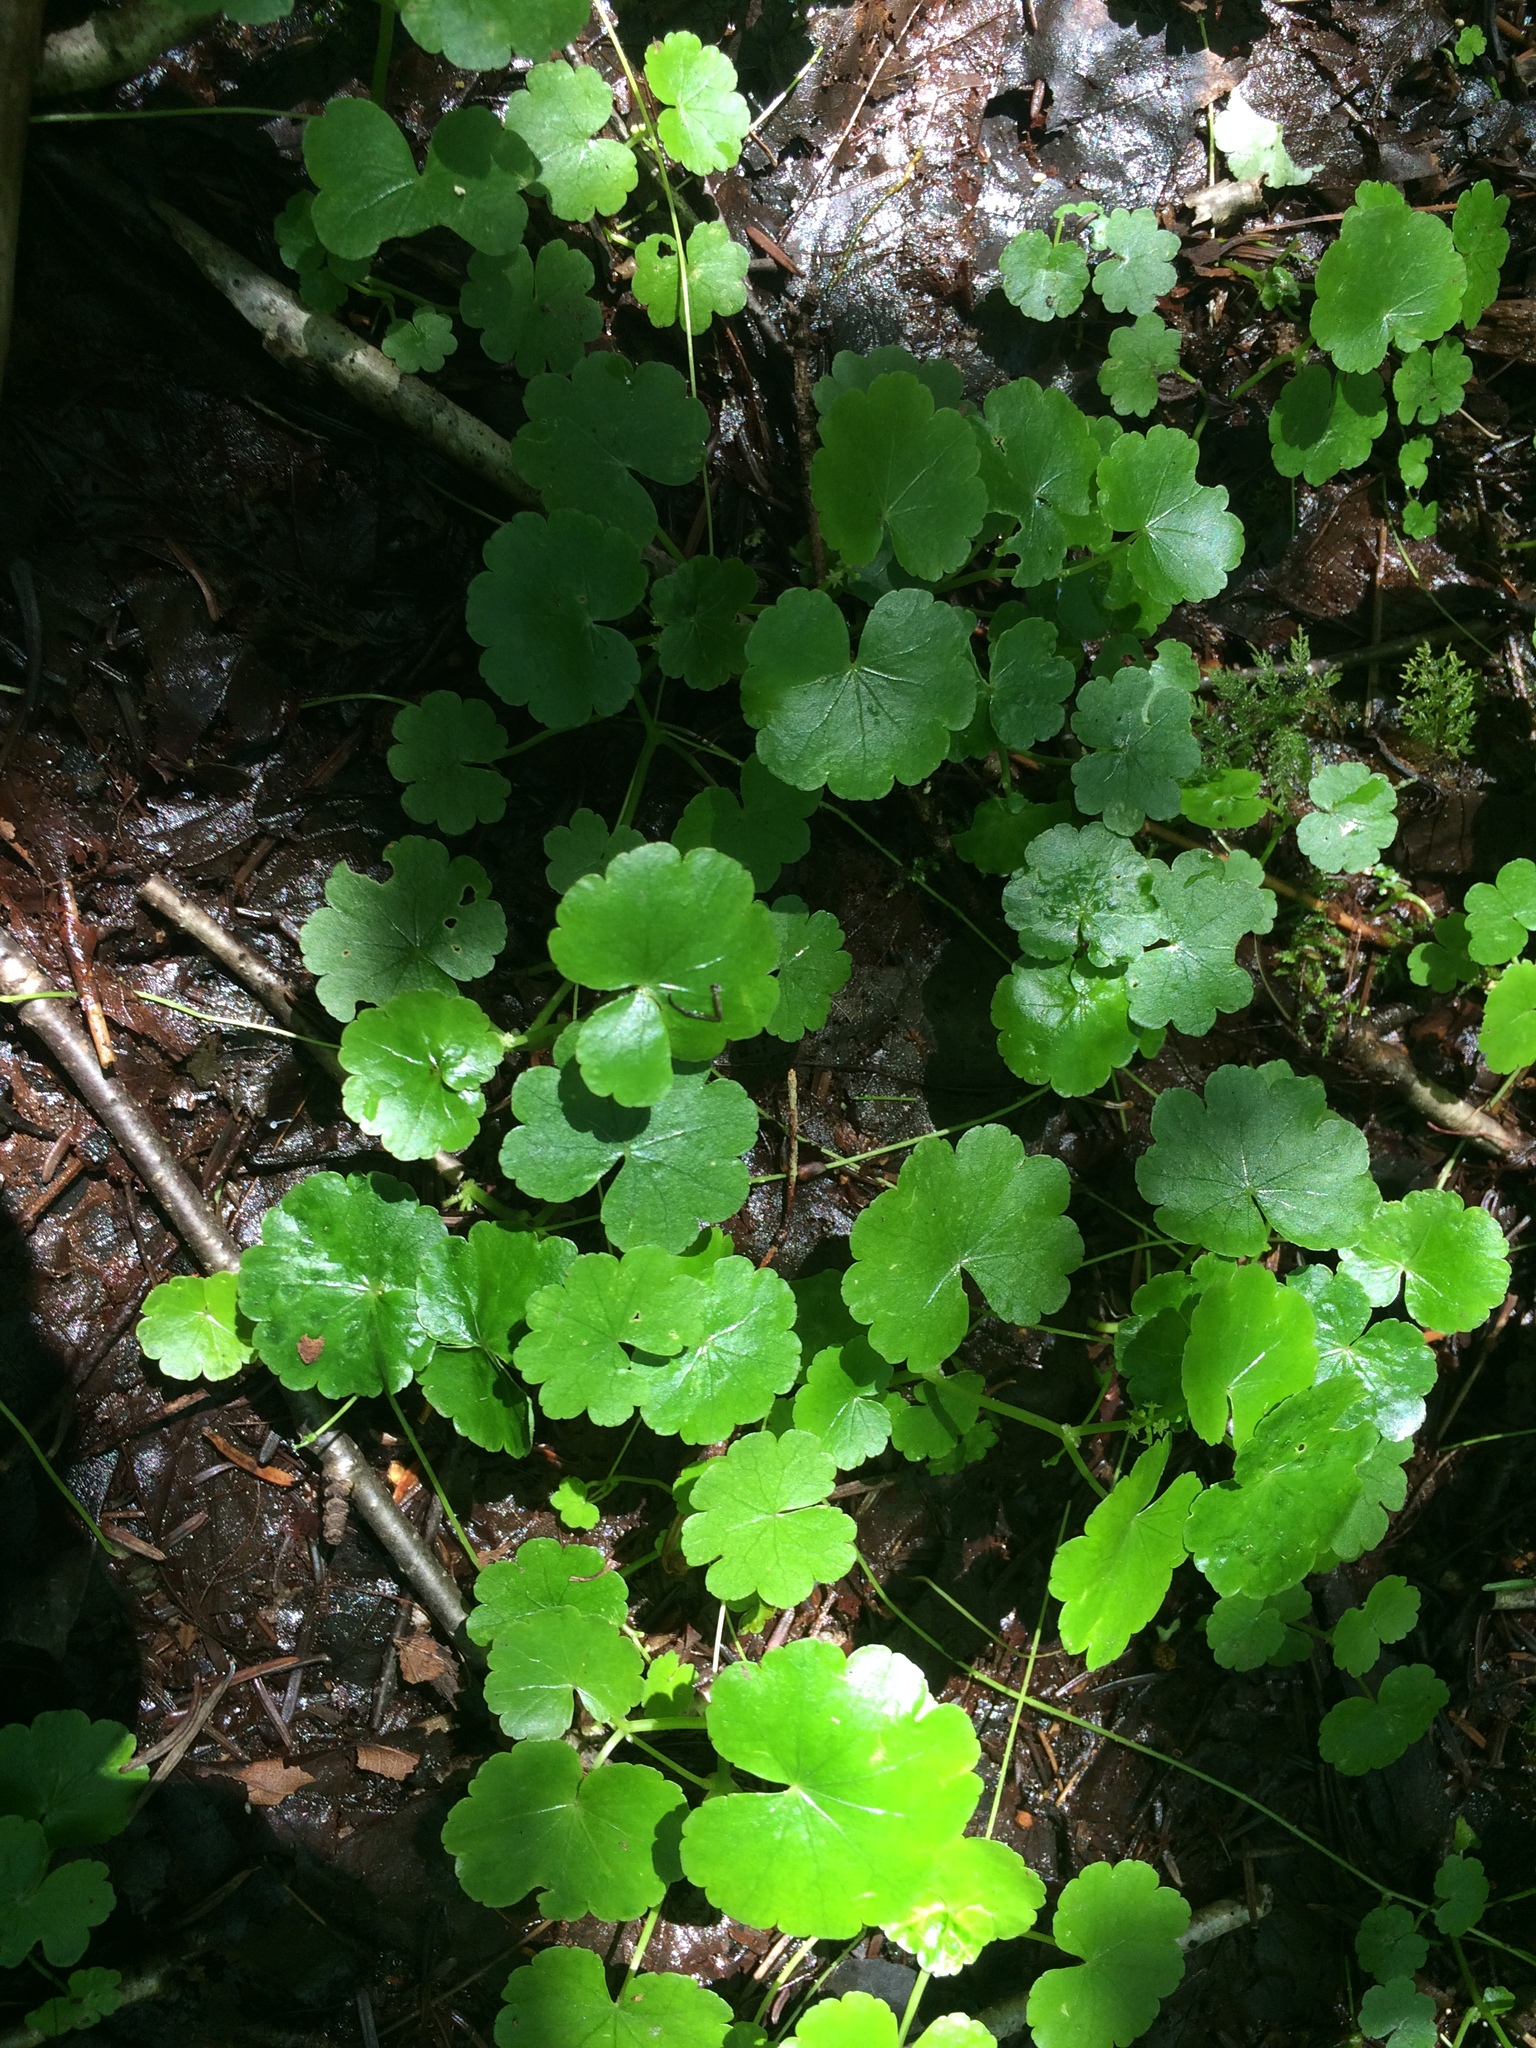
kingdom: Plantae
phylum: Tracheophyta
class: Magnoliopsida
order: Apiales
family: Araliaceae
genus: Hydrocotyle
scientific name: Hydrocotyle americana
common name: American water-pennywort
